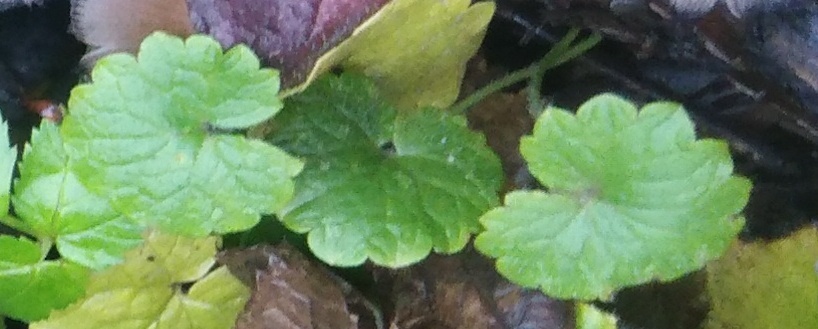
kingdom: Plantae
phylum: Tracheophyta
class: Magnoliopsida
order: Lamiales
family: Lamiaceae
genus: Glechoma
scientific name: Glechoma hederacea
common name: Ground ivy
